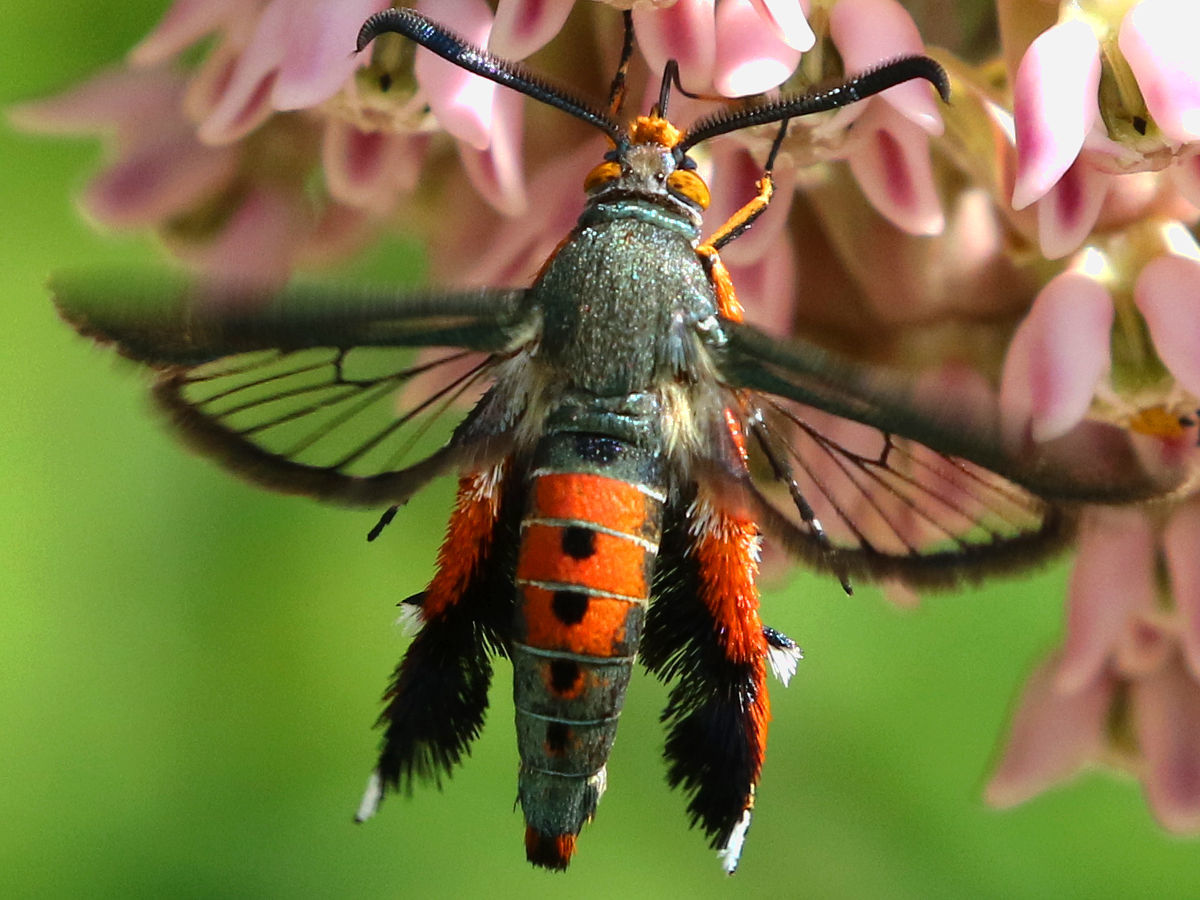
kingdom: Animalia
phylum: Arthropoda
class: Insecta
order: Lepidoptera
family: Sesiidae
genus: Eichlinia
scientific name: Eichlinia cucurbitae
